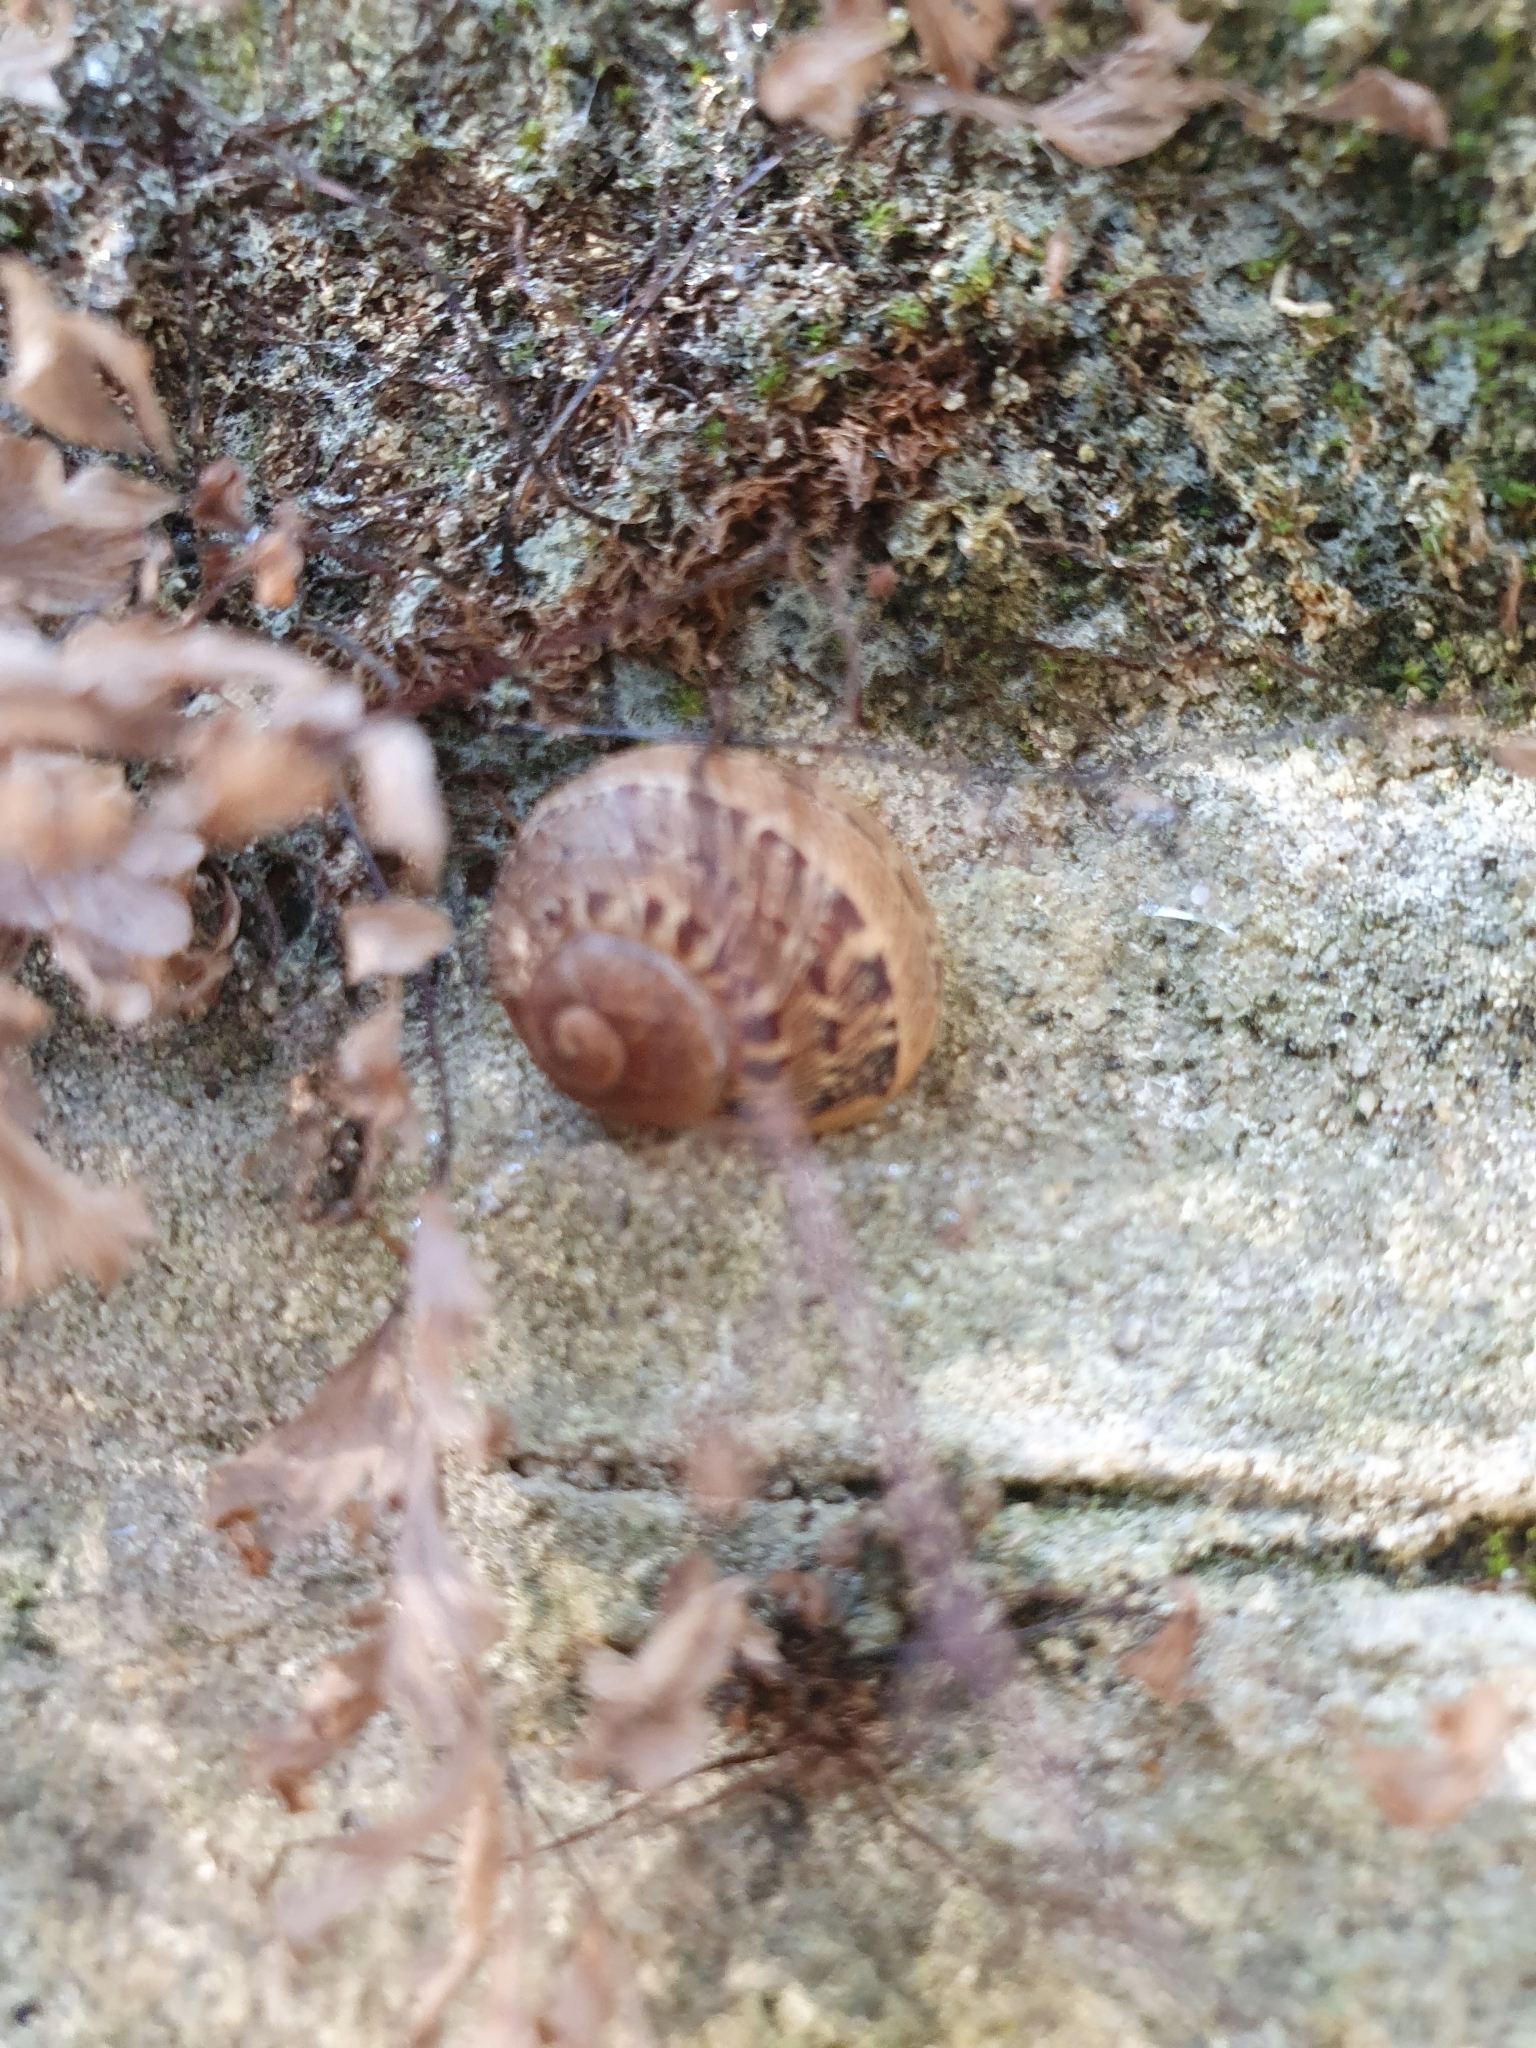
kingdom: Animalia
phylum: Mollusca
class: Gastropoda
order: Stylommatophora
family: Helicidae
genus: Cornu
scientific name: Cornu aspersum
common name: Brown garden snail
